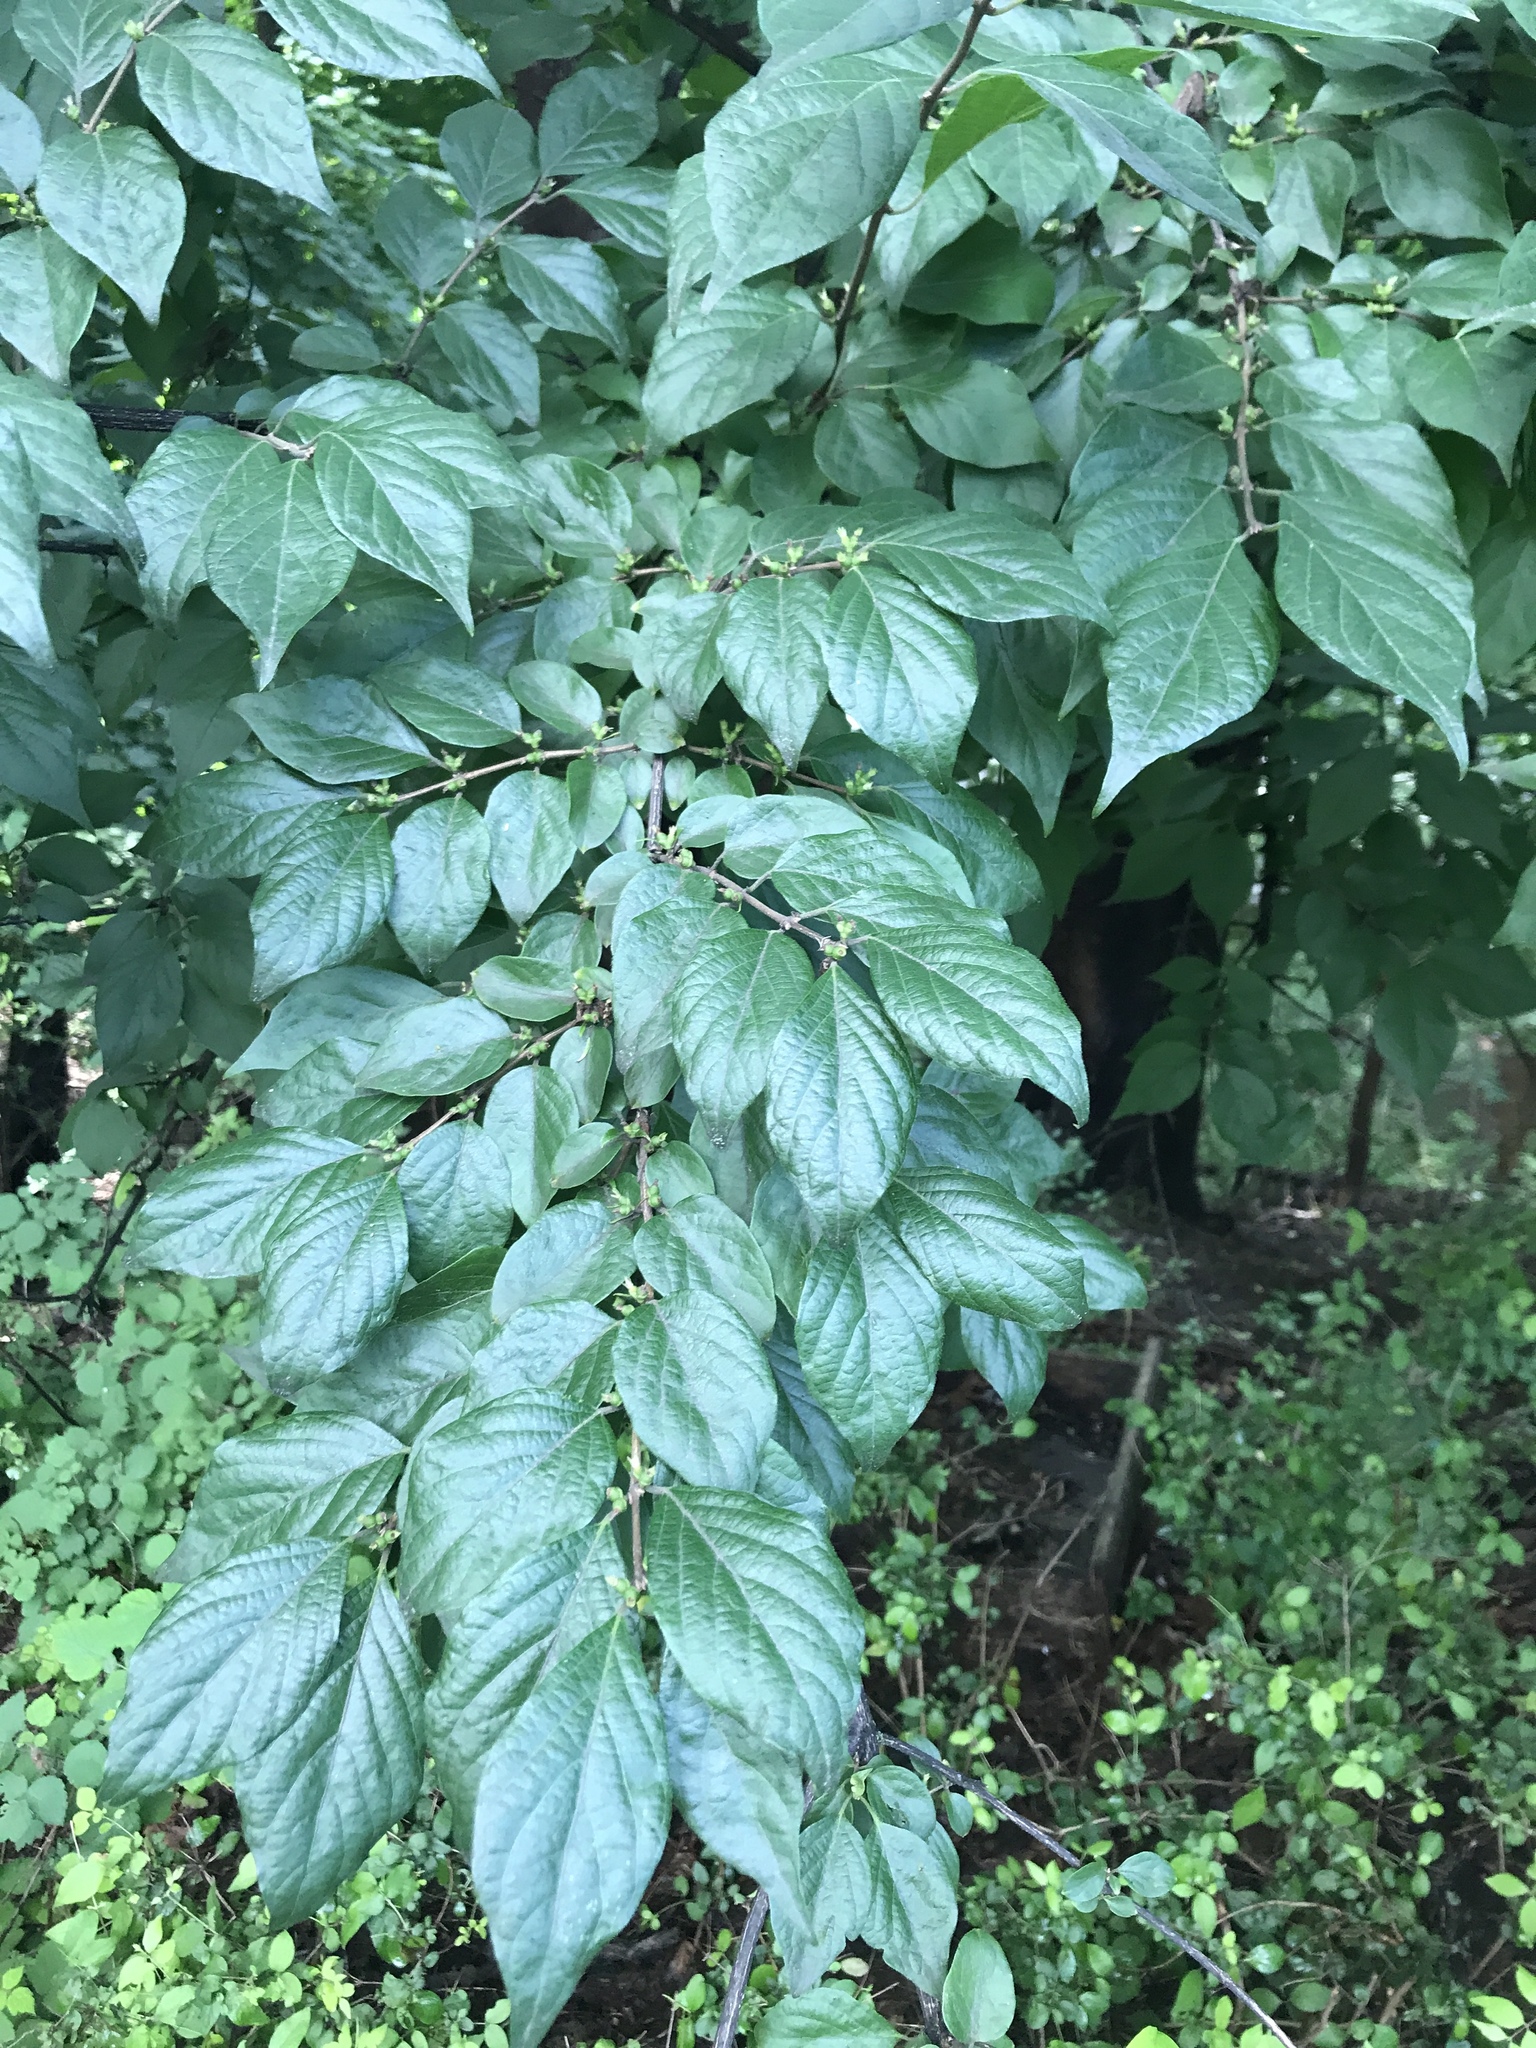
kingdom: Plantae
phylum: Tracheophyta
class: Magnoliopsida
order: Dipsacales
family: Caprifoliaceae
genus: Lonicera
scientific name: Lonicera maackii
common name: Amur honeysuckle
